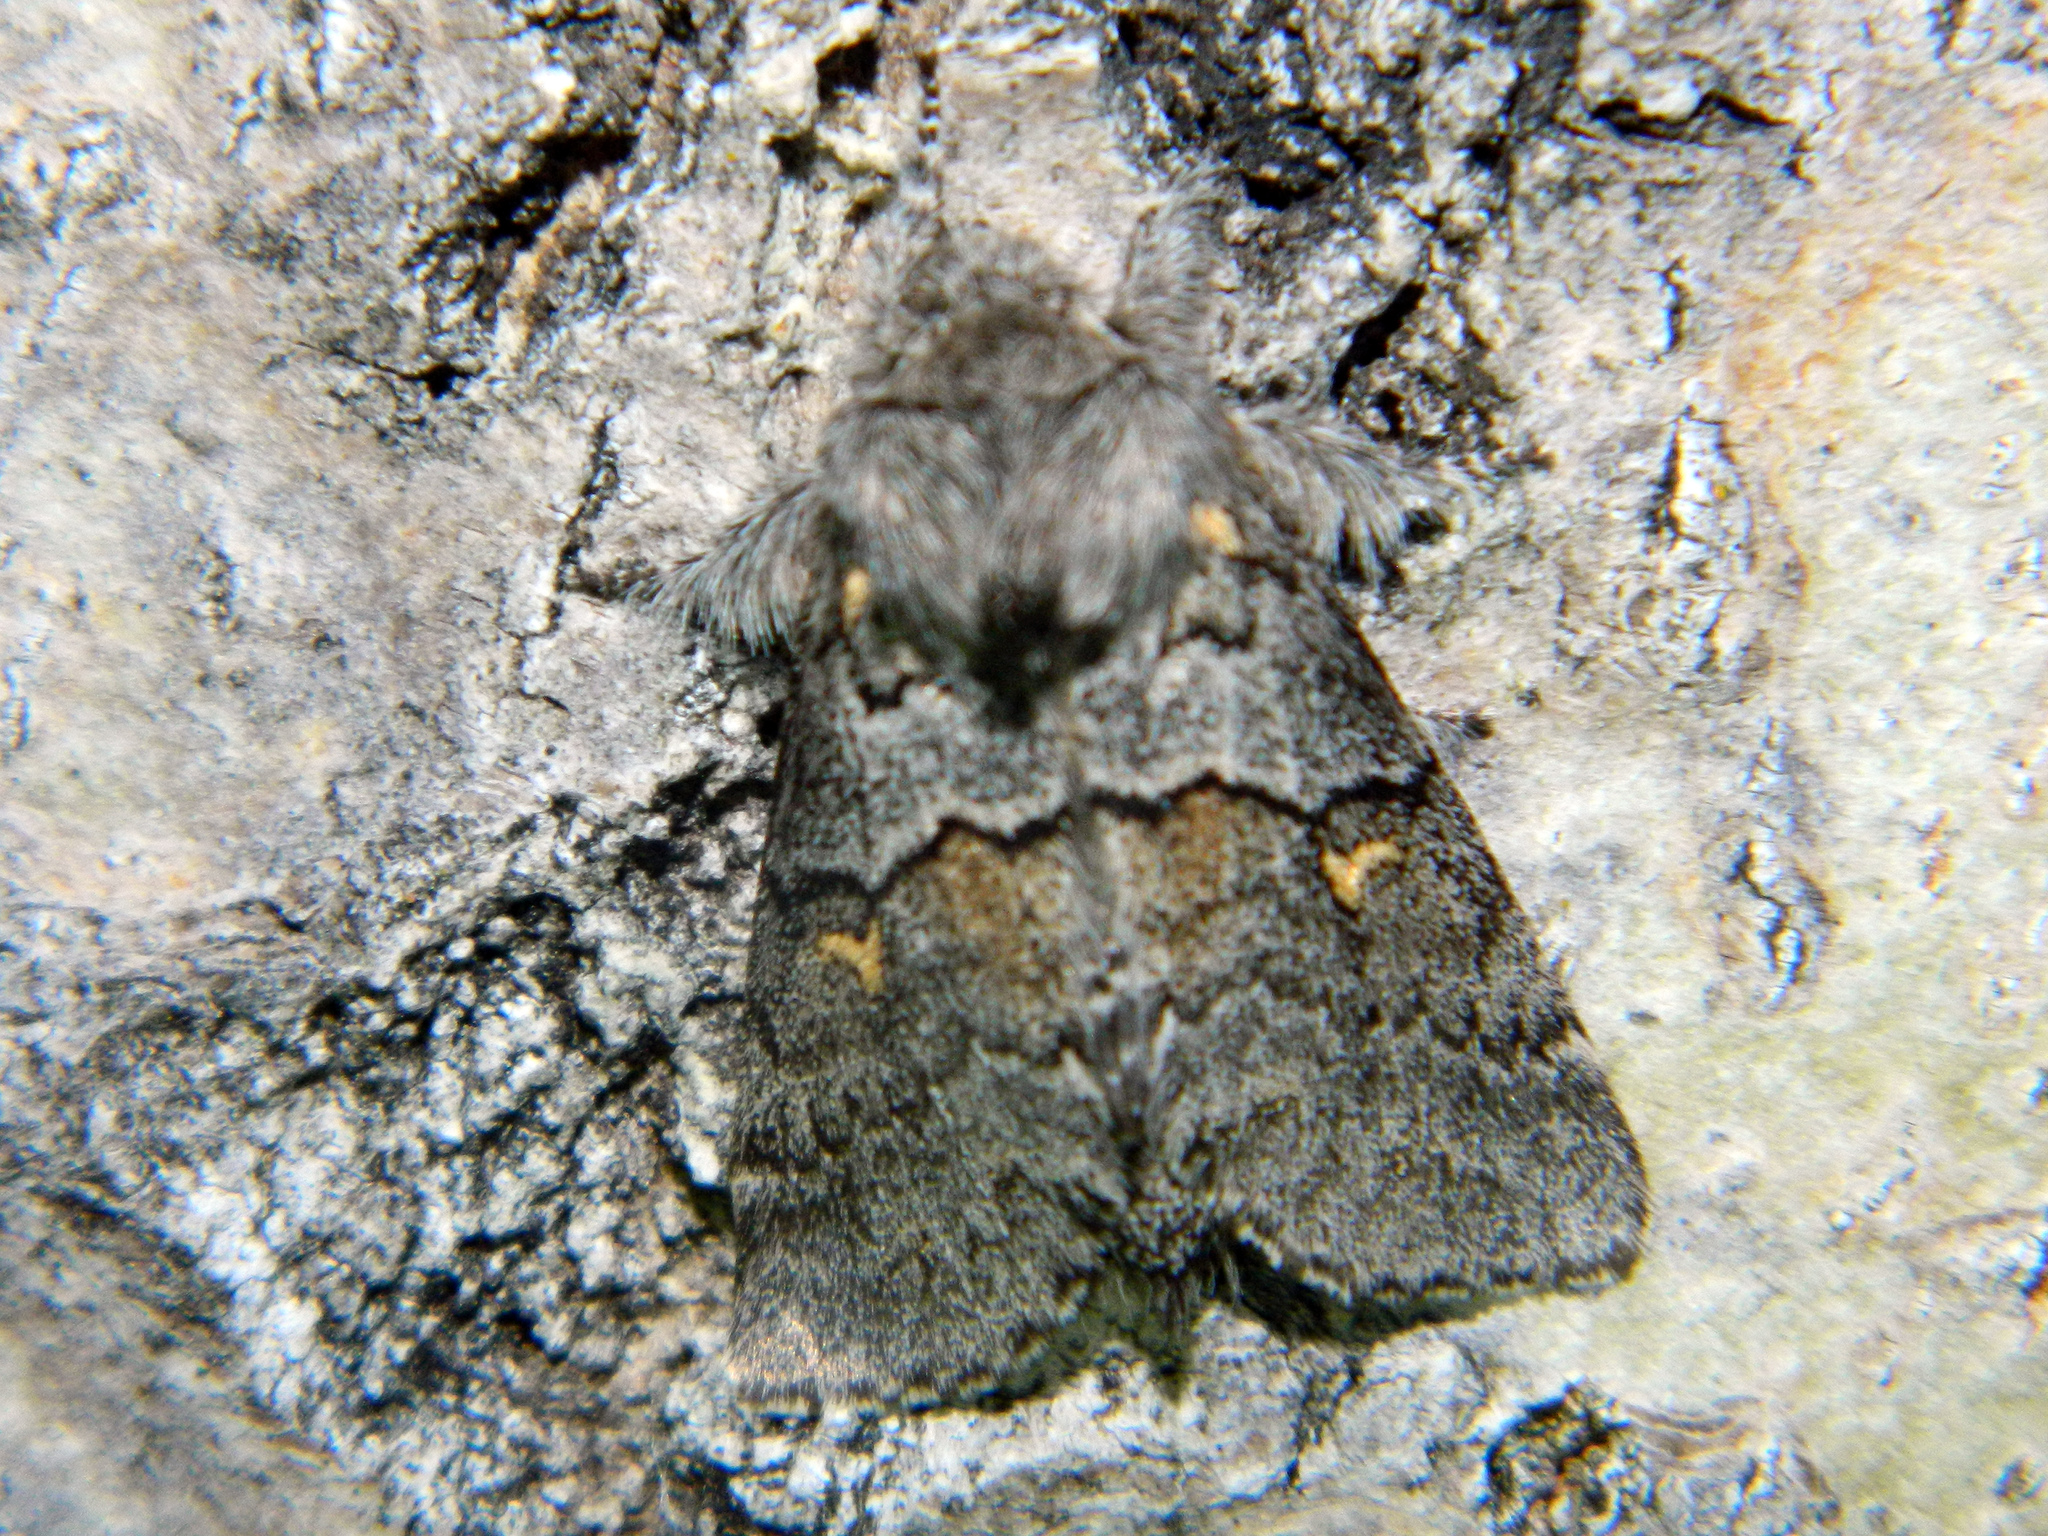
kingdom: Animalia
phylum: Arthropoda
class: Insecta
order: Lepidoptera
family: Notodontidae
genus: Gluphisia
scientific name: Gluphisia avimacula
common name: Four-spotted gluphisia moth
